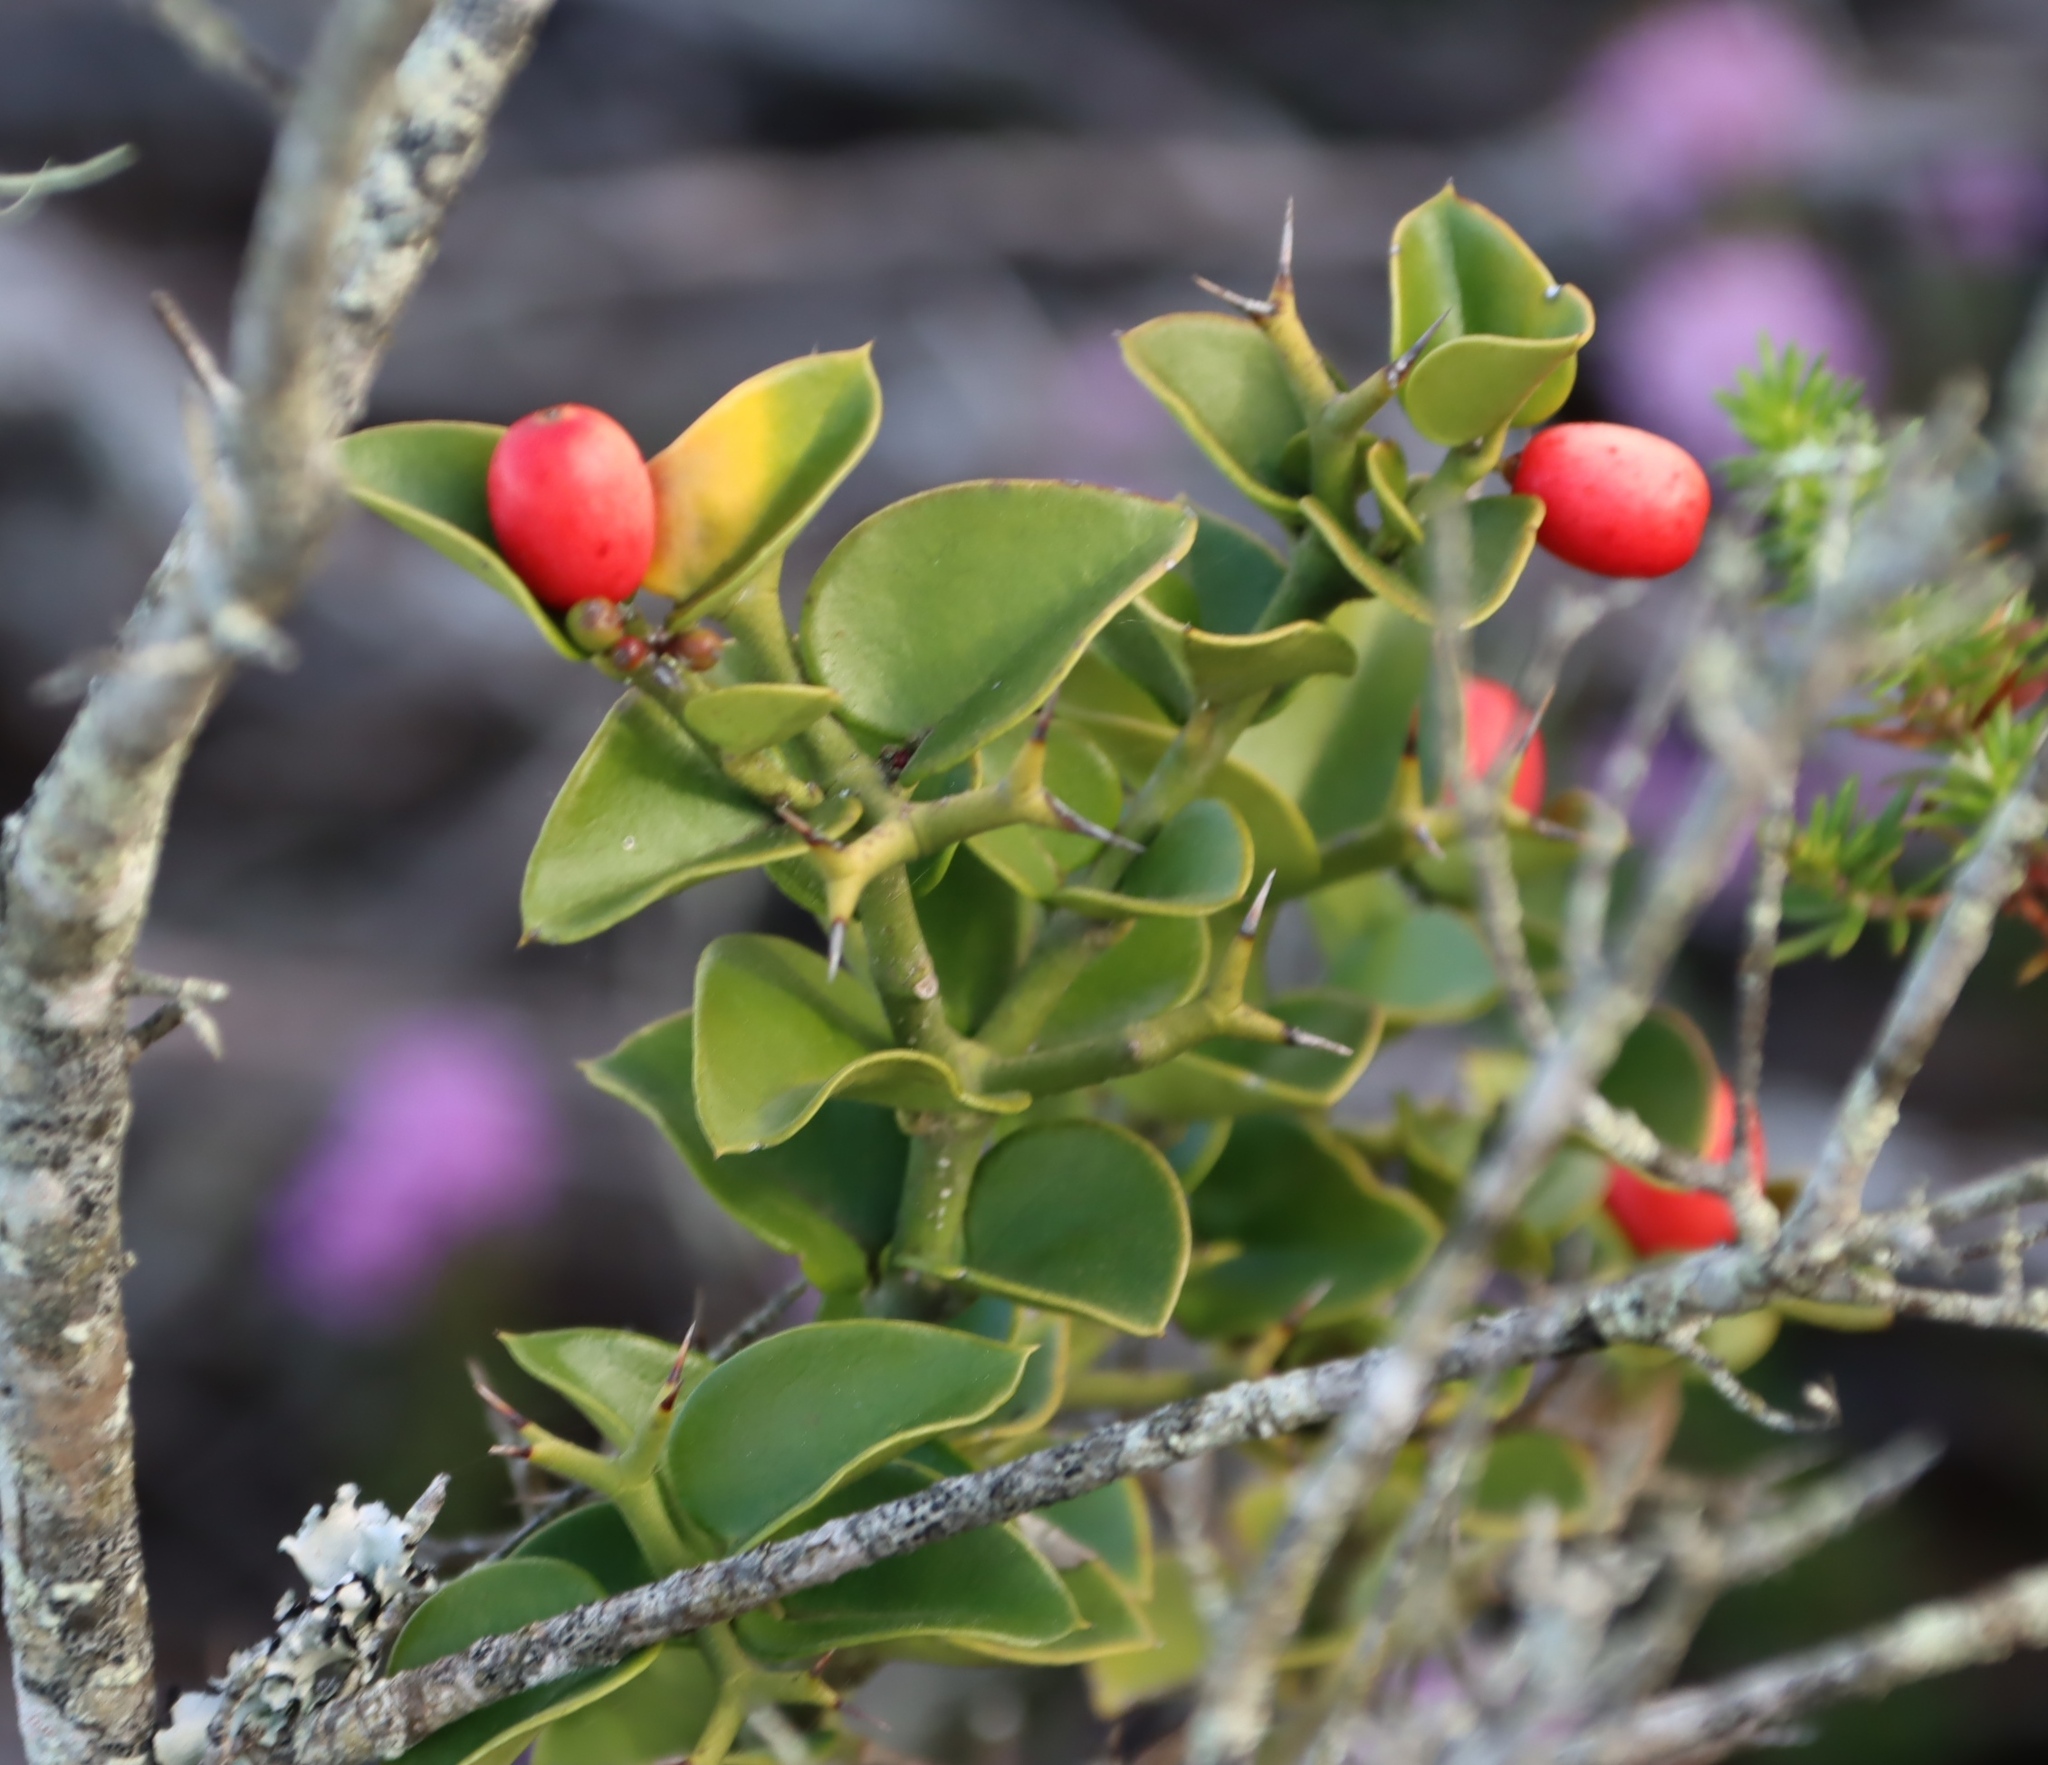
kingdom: Plantae
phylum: Tracheophyta
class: Magnoliopsida
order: Gentianales
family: Apocynaceae
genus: Carissa
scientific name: Carissa bispinosa
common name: Forest num-num
